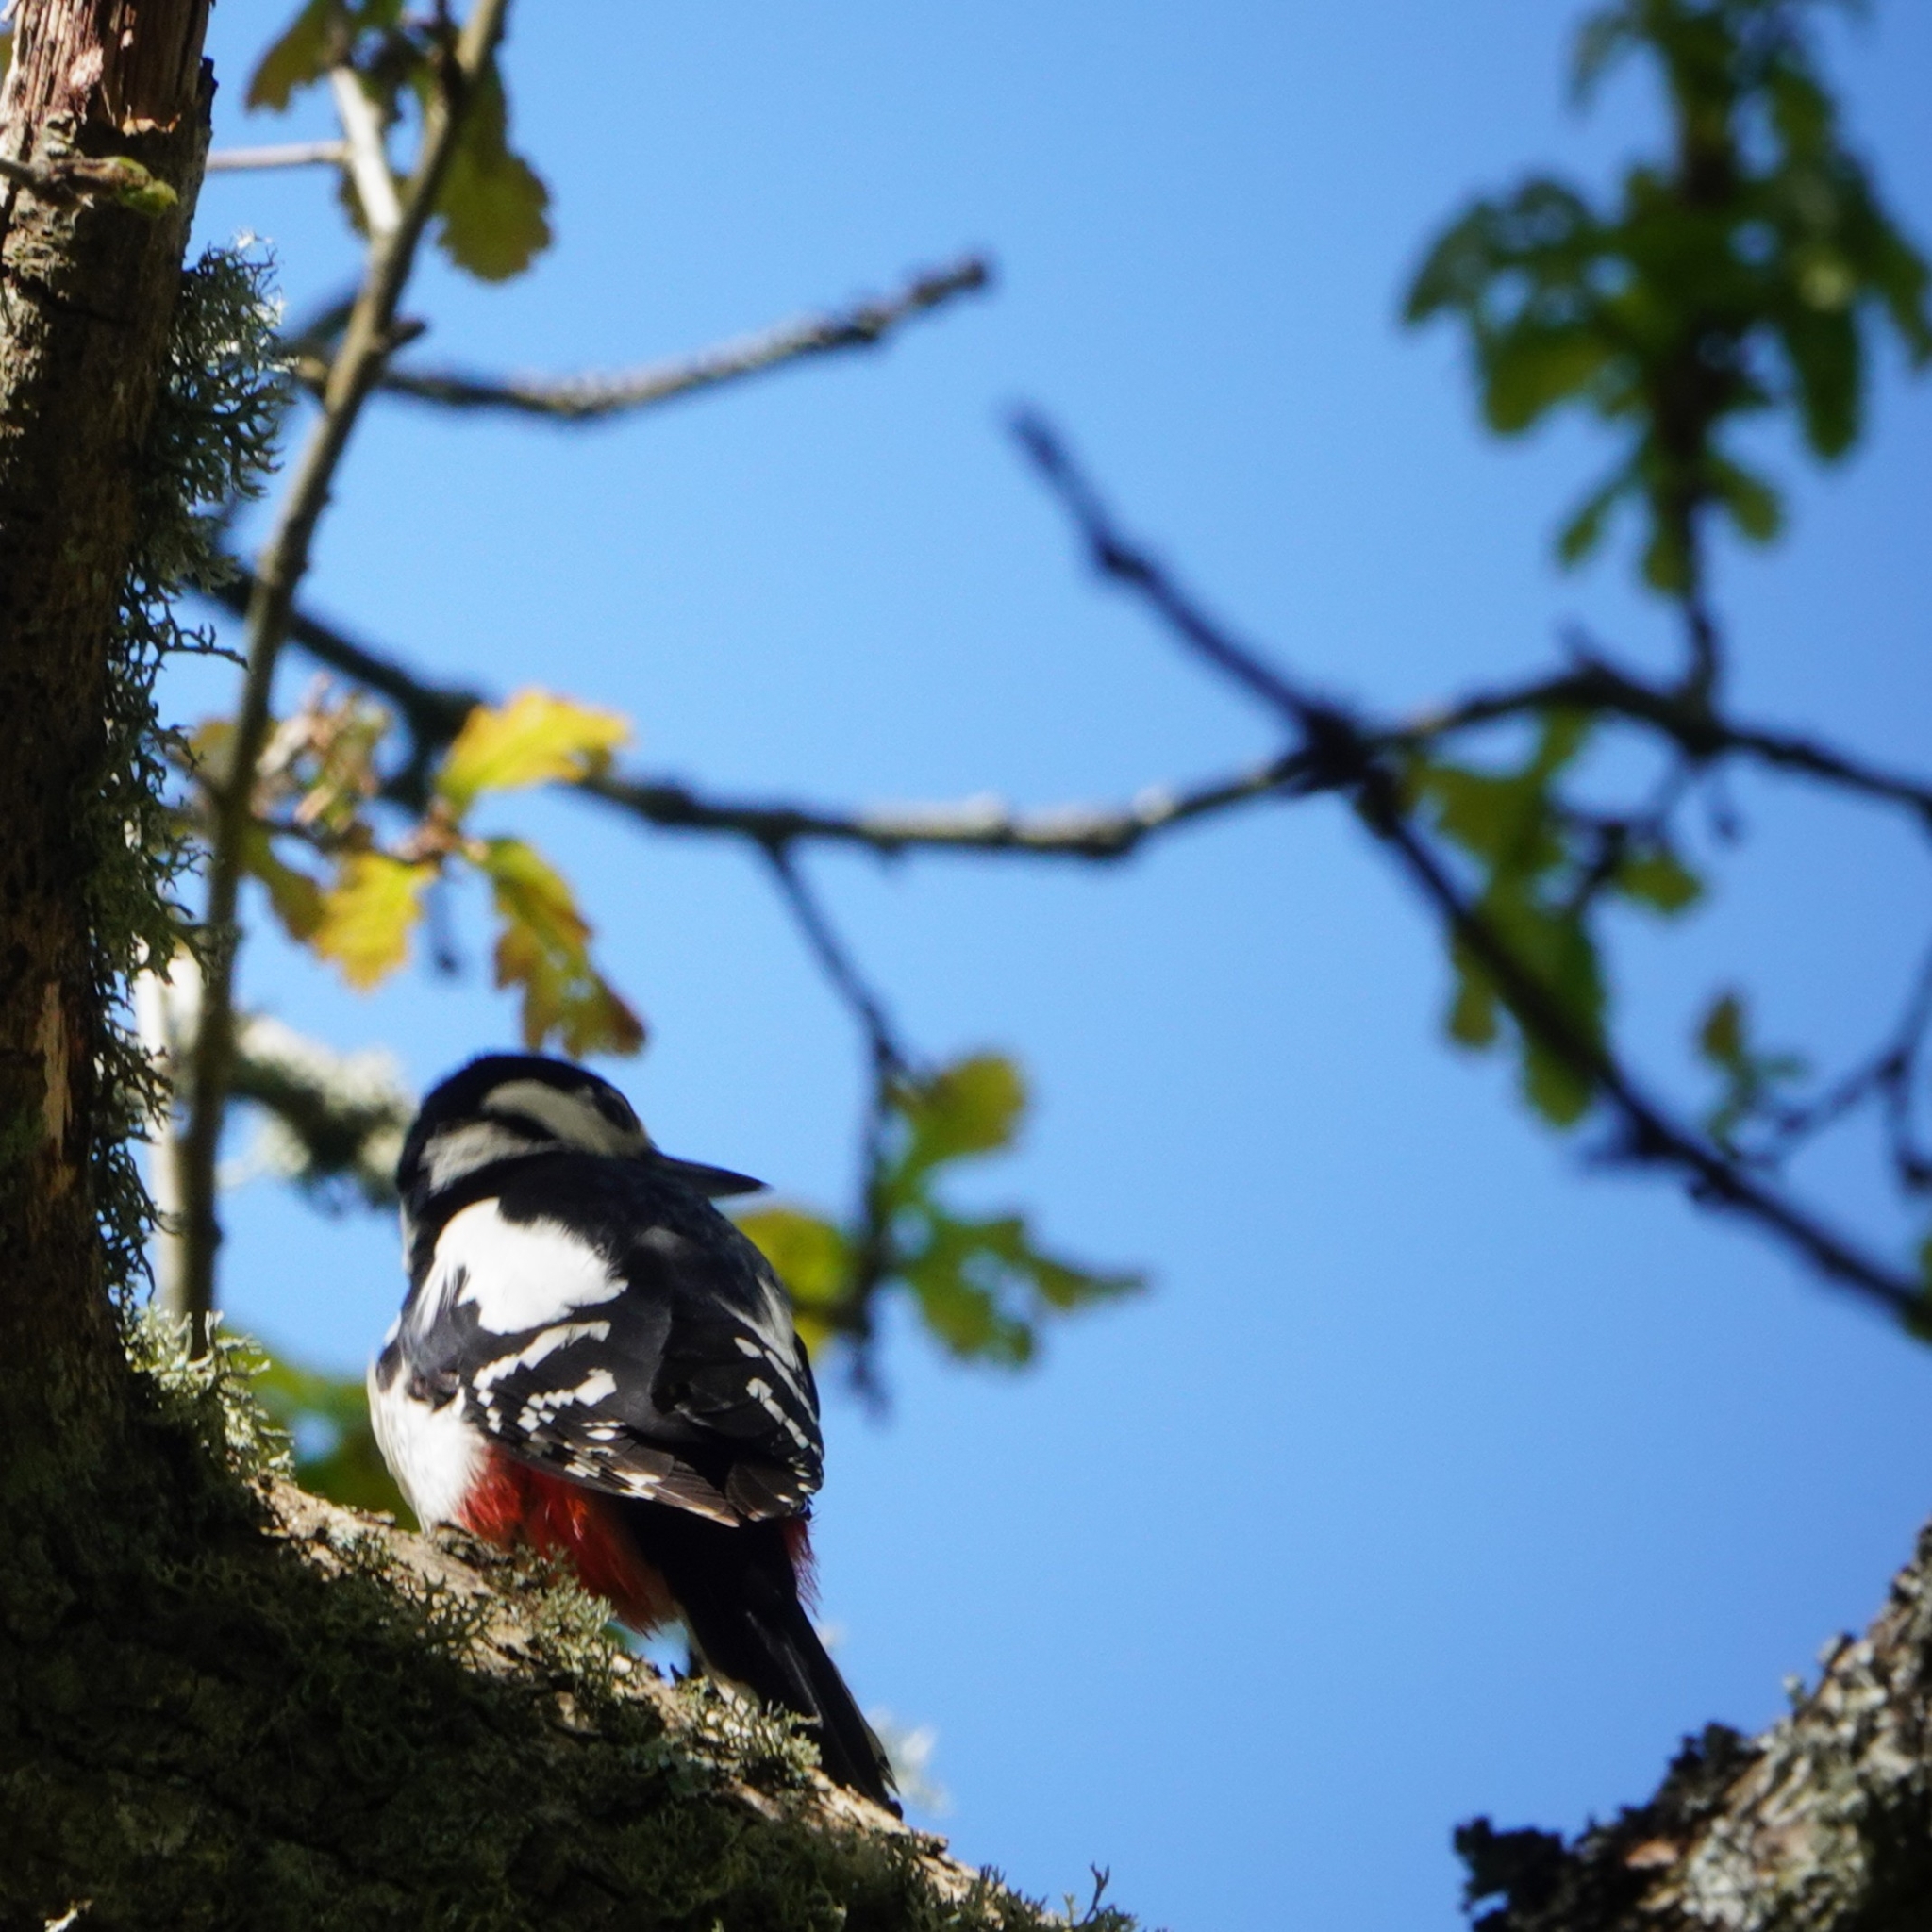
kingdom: Animalia
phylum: Chordata
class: Aves
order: Piciformes
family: Picidae
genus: Dendrocopos
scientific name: Dendrocopos major
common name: Great spotted woodpecker
